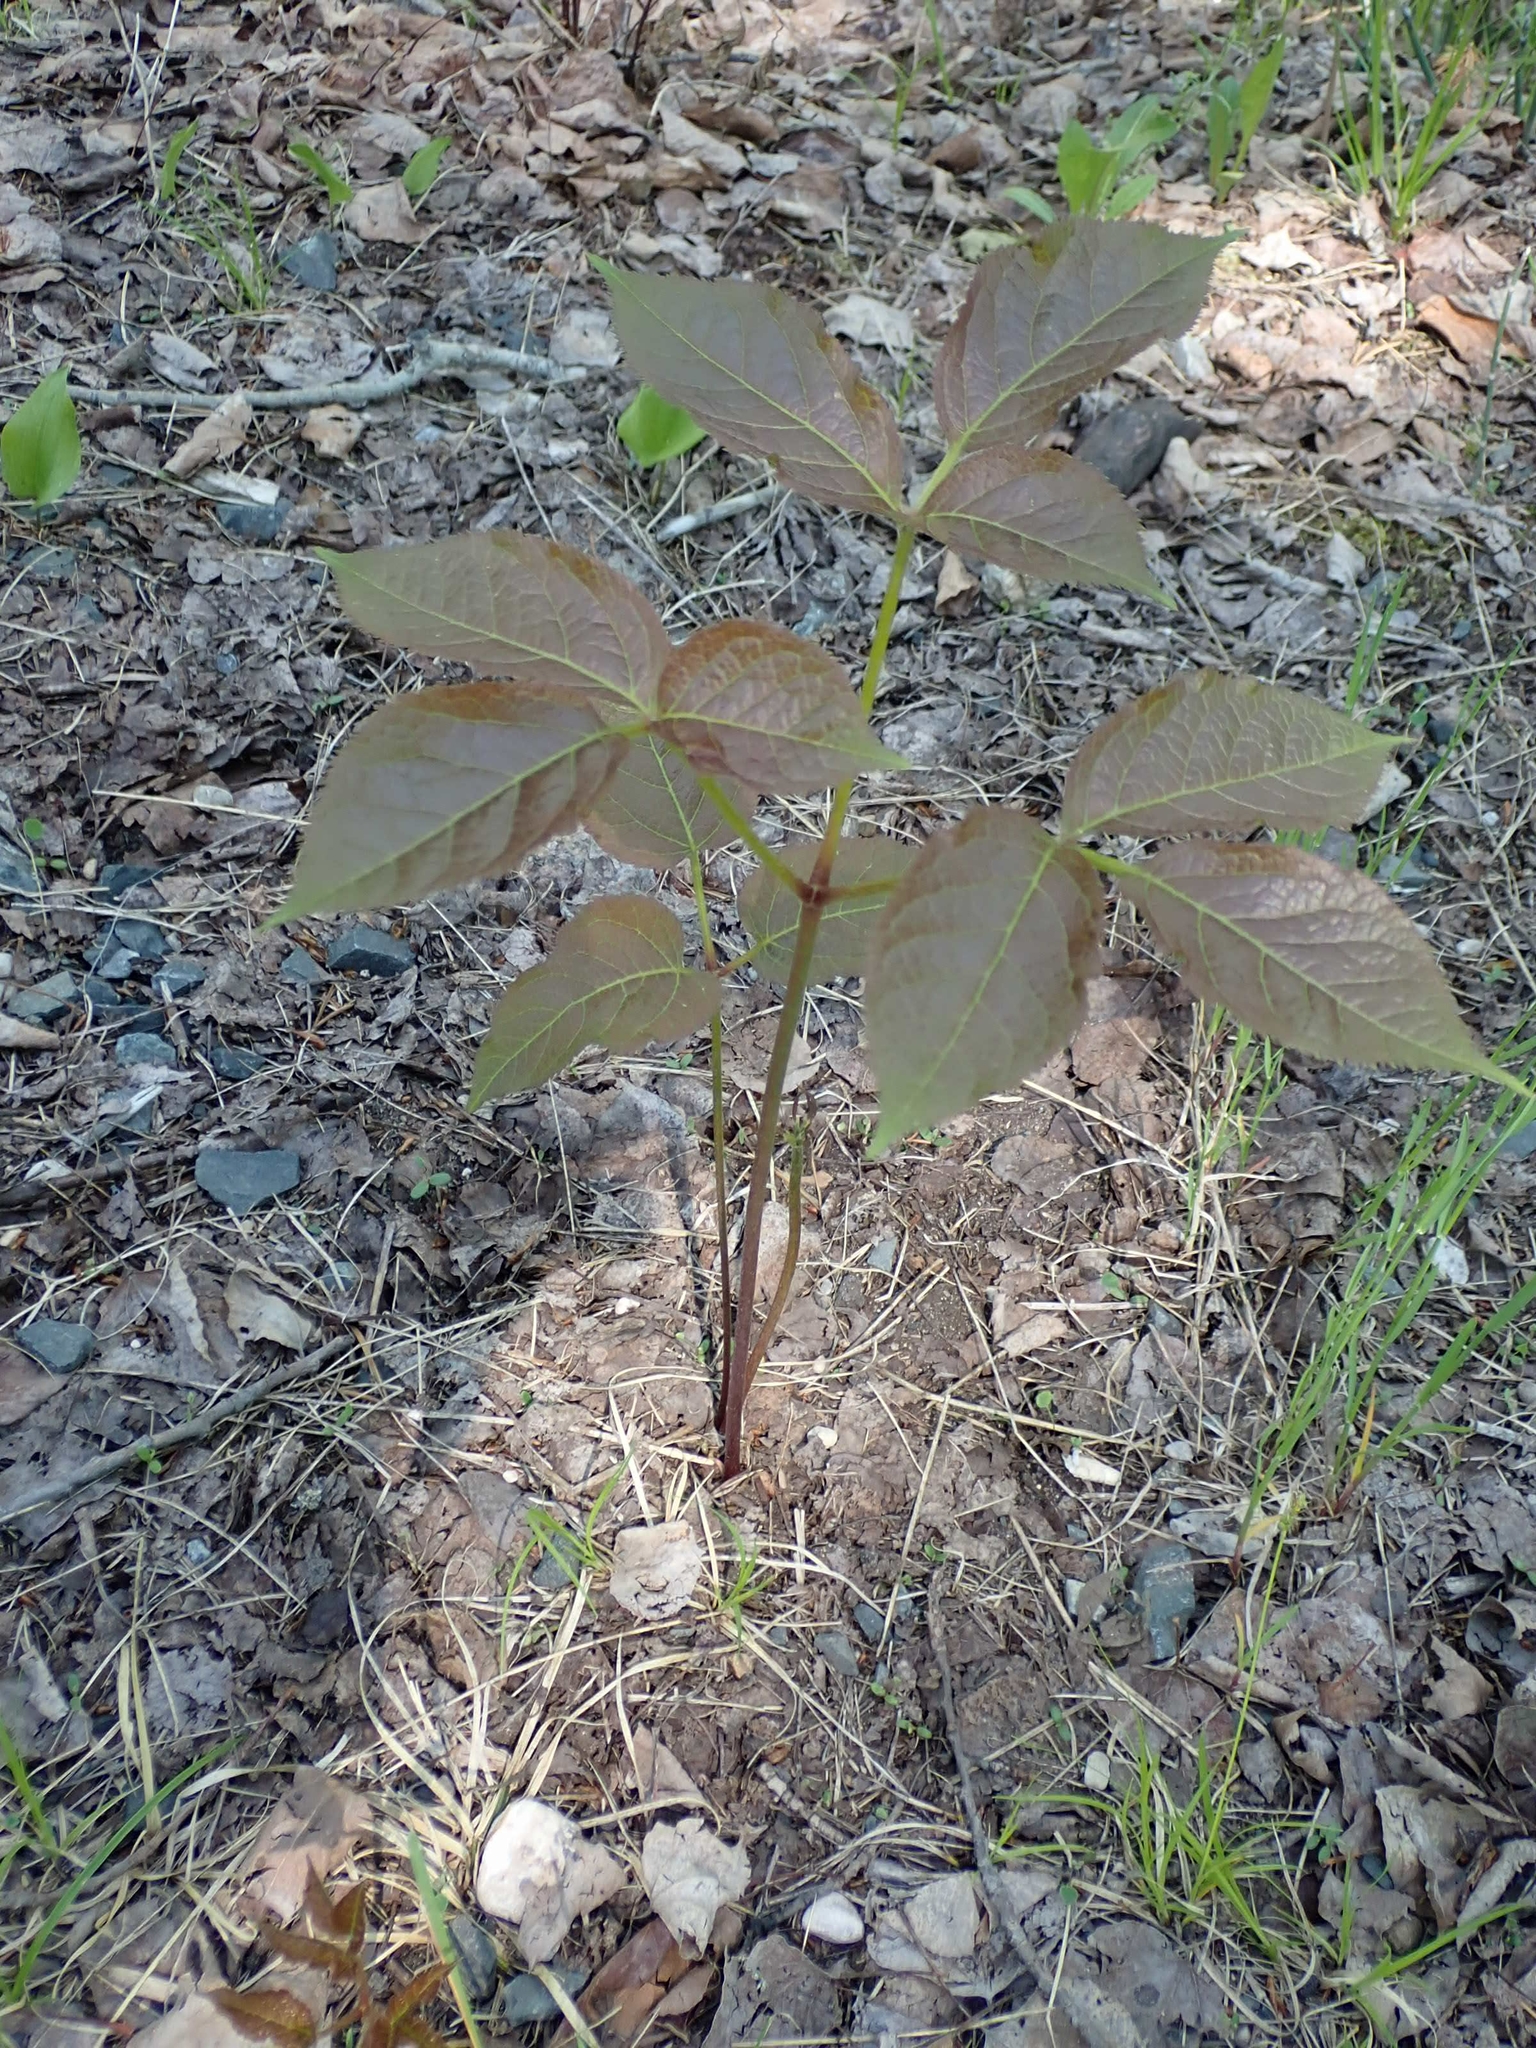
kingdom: Plantae
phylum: Tracheophyta
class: Magnoliopsida
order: Apiales
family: Araliaceae
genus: Aralia
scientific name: Aralia nudicaulis
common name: Wild sarsaparilla
